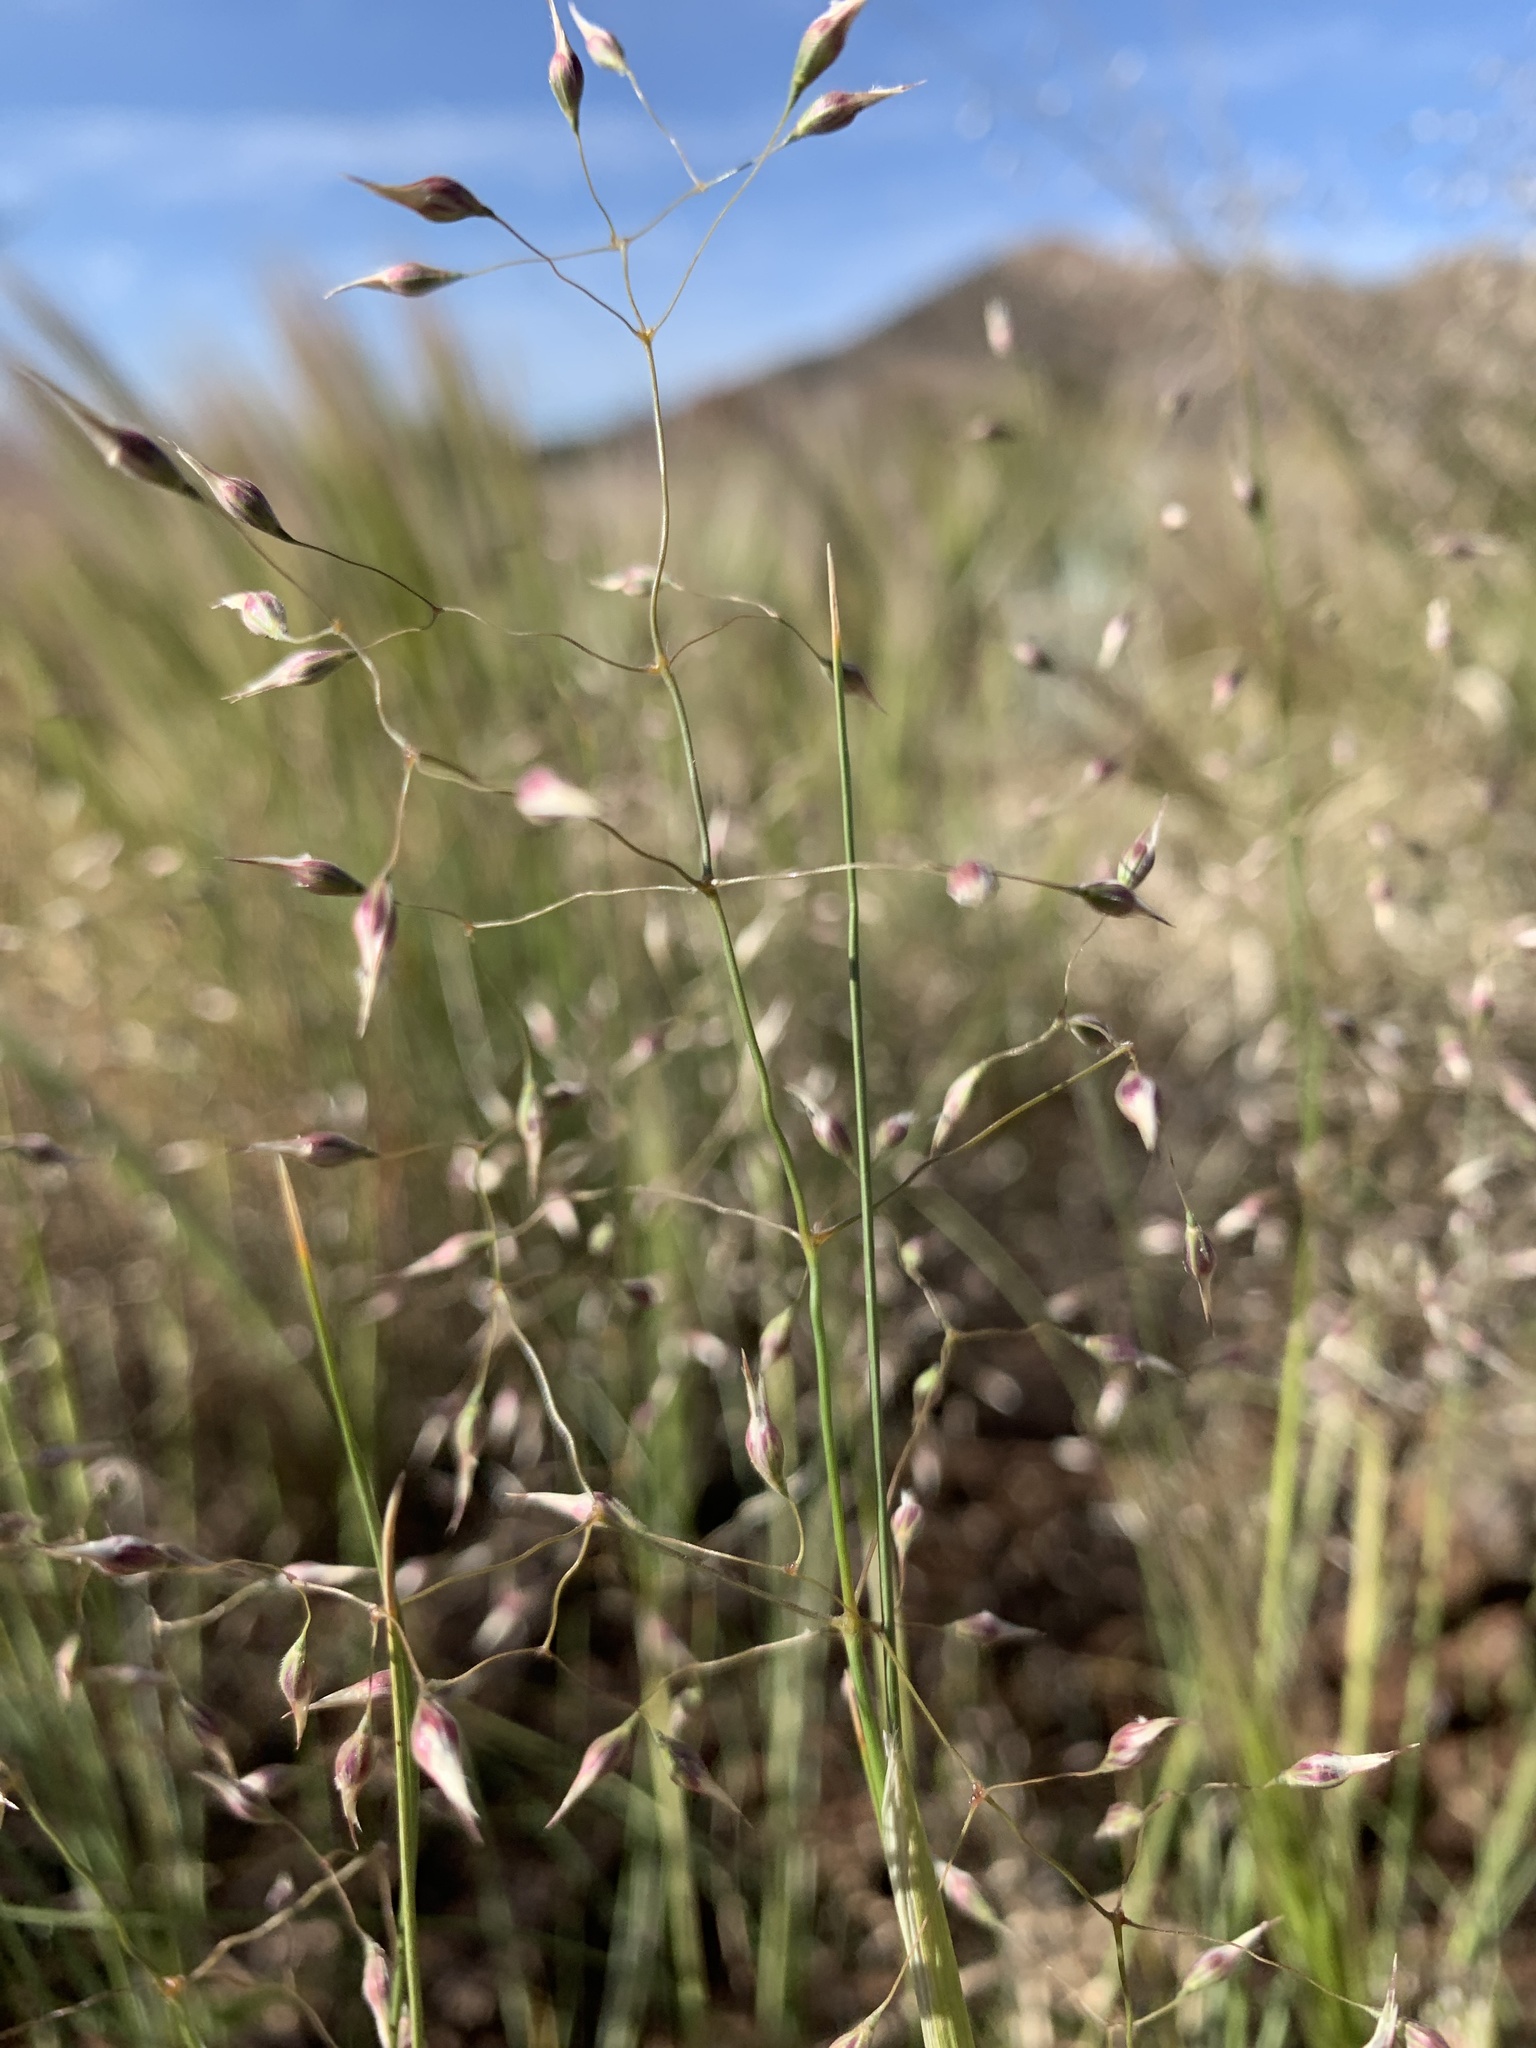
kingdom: Plantae
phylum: Tracheophyta
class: Liliopsida
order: Poales
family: Poaceae
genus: Eriocoma
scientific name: Eriocoma hymenoides
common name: Indian mountain ricegrass
